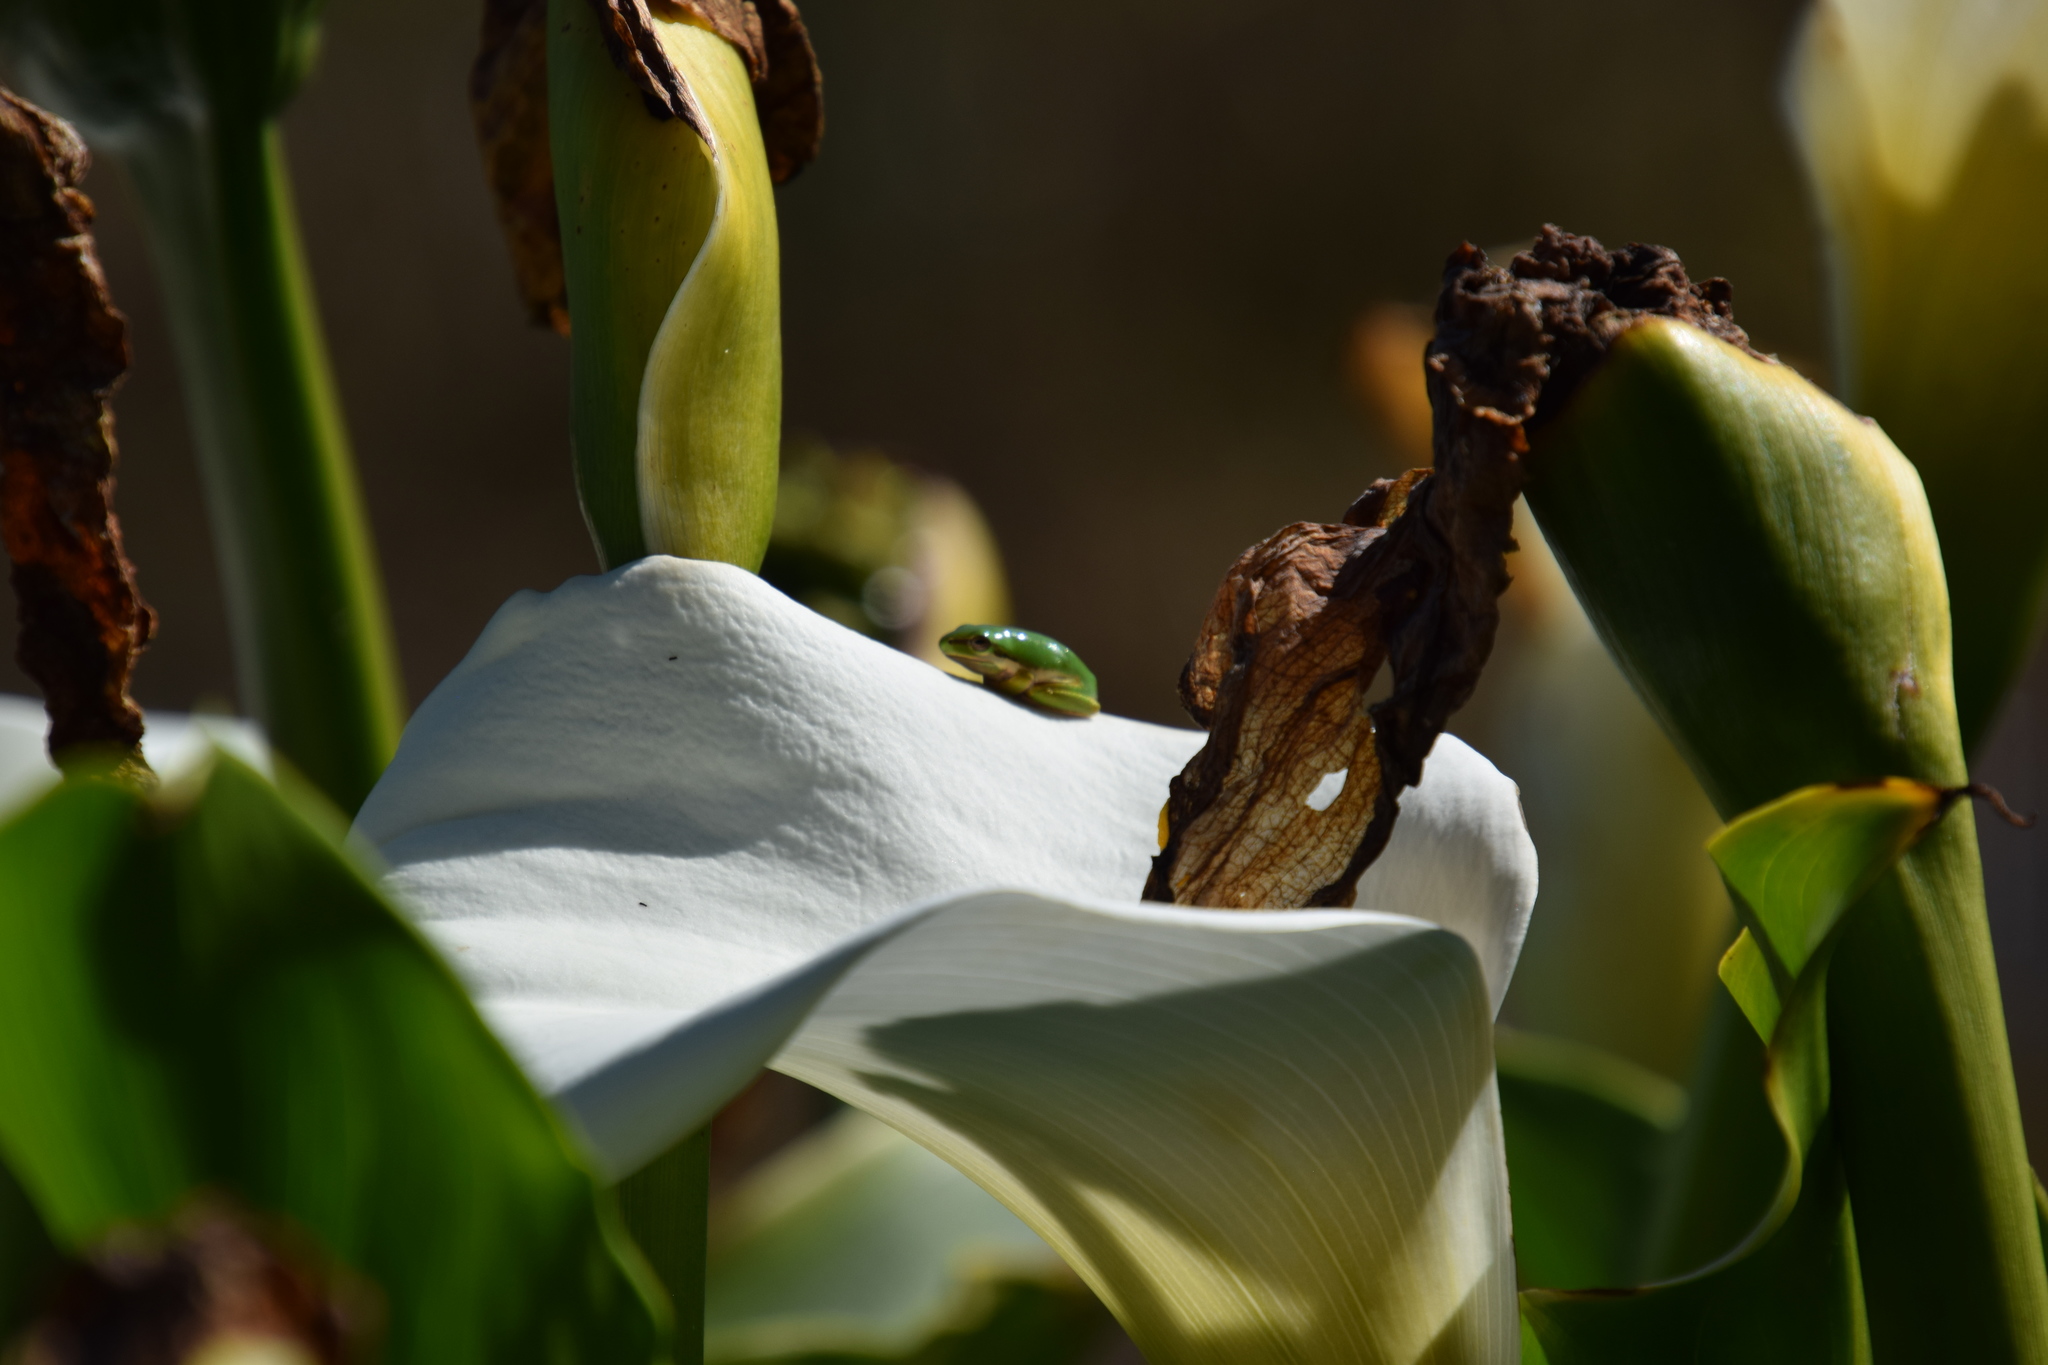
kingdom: Animalia
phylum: Chordata
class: Amphibia
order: Anura
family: Pelodryadidae
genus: Litoria
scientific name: Litoria fallax
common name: Eastern dwarf treefrog
